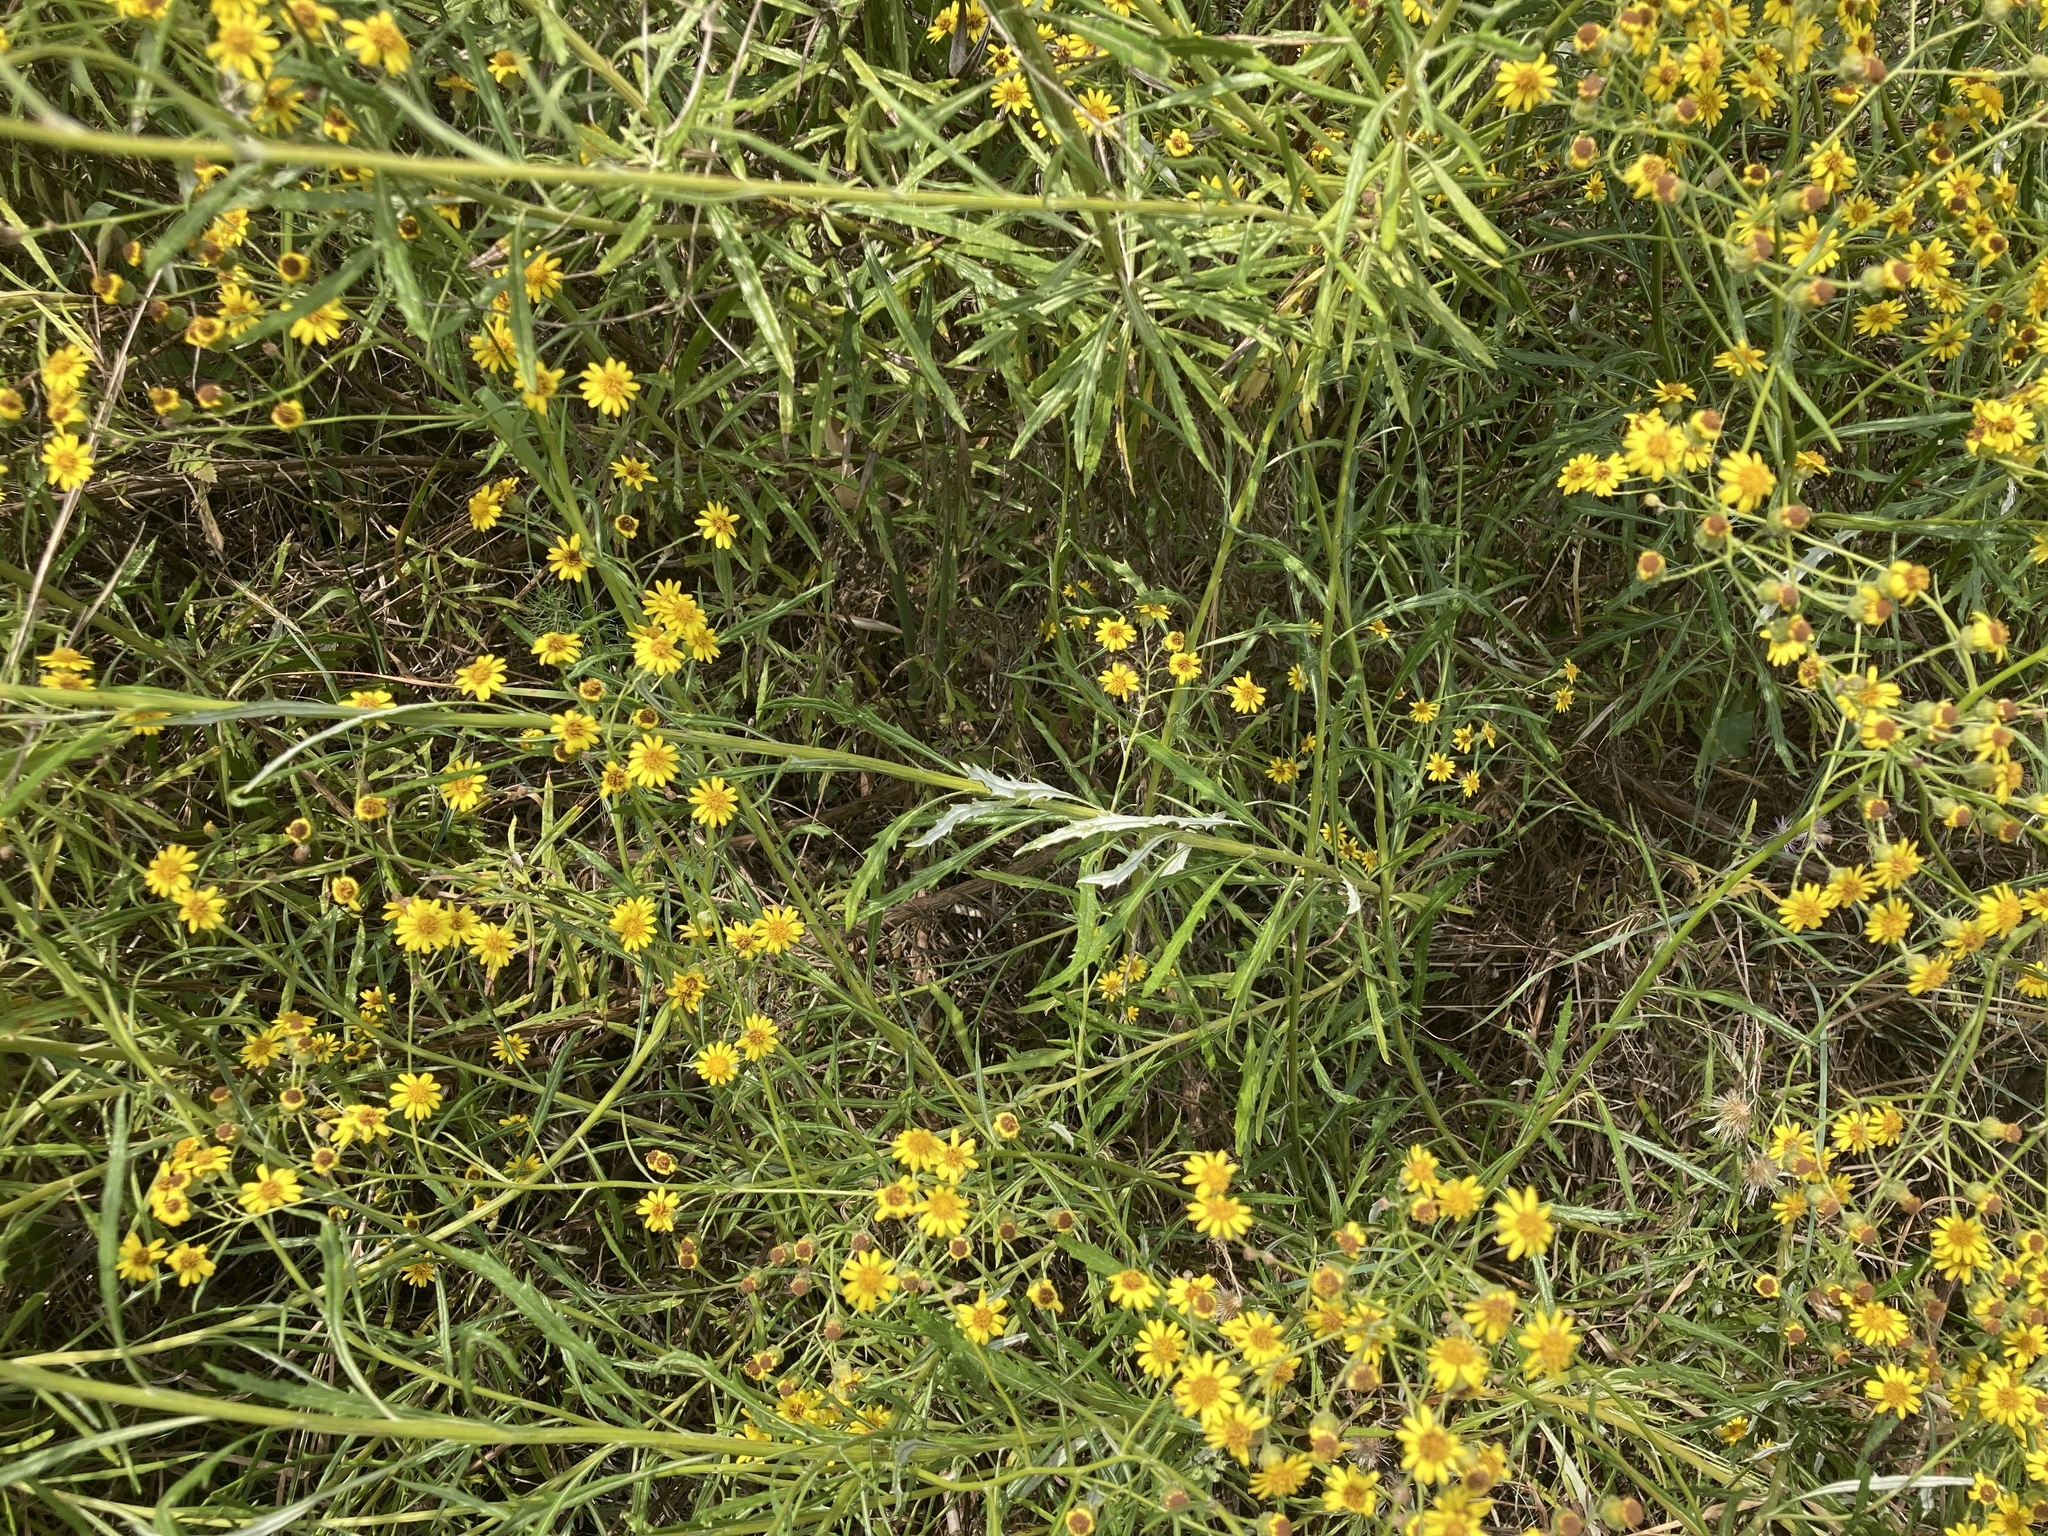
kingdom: Plantae
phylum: Tracheophyta
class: Magnoliopsida
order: Asterales
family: Asteraceae
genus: Senecio
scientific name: Senecio pterophorus
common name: Shoddy ragwort
